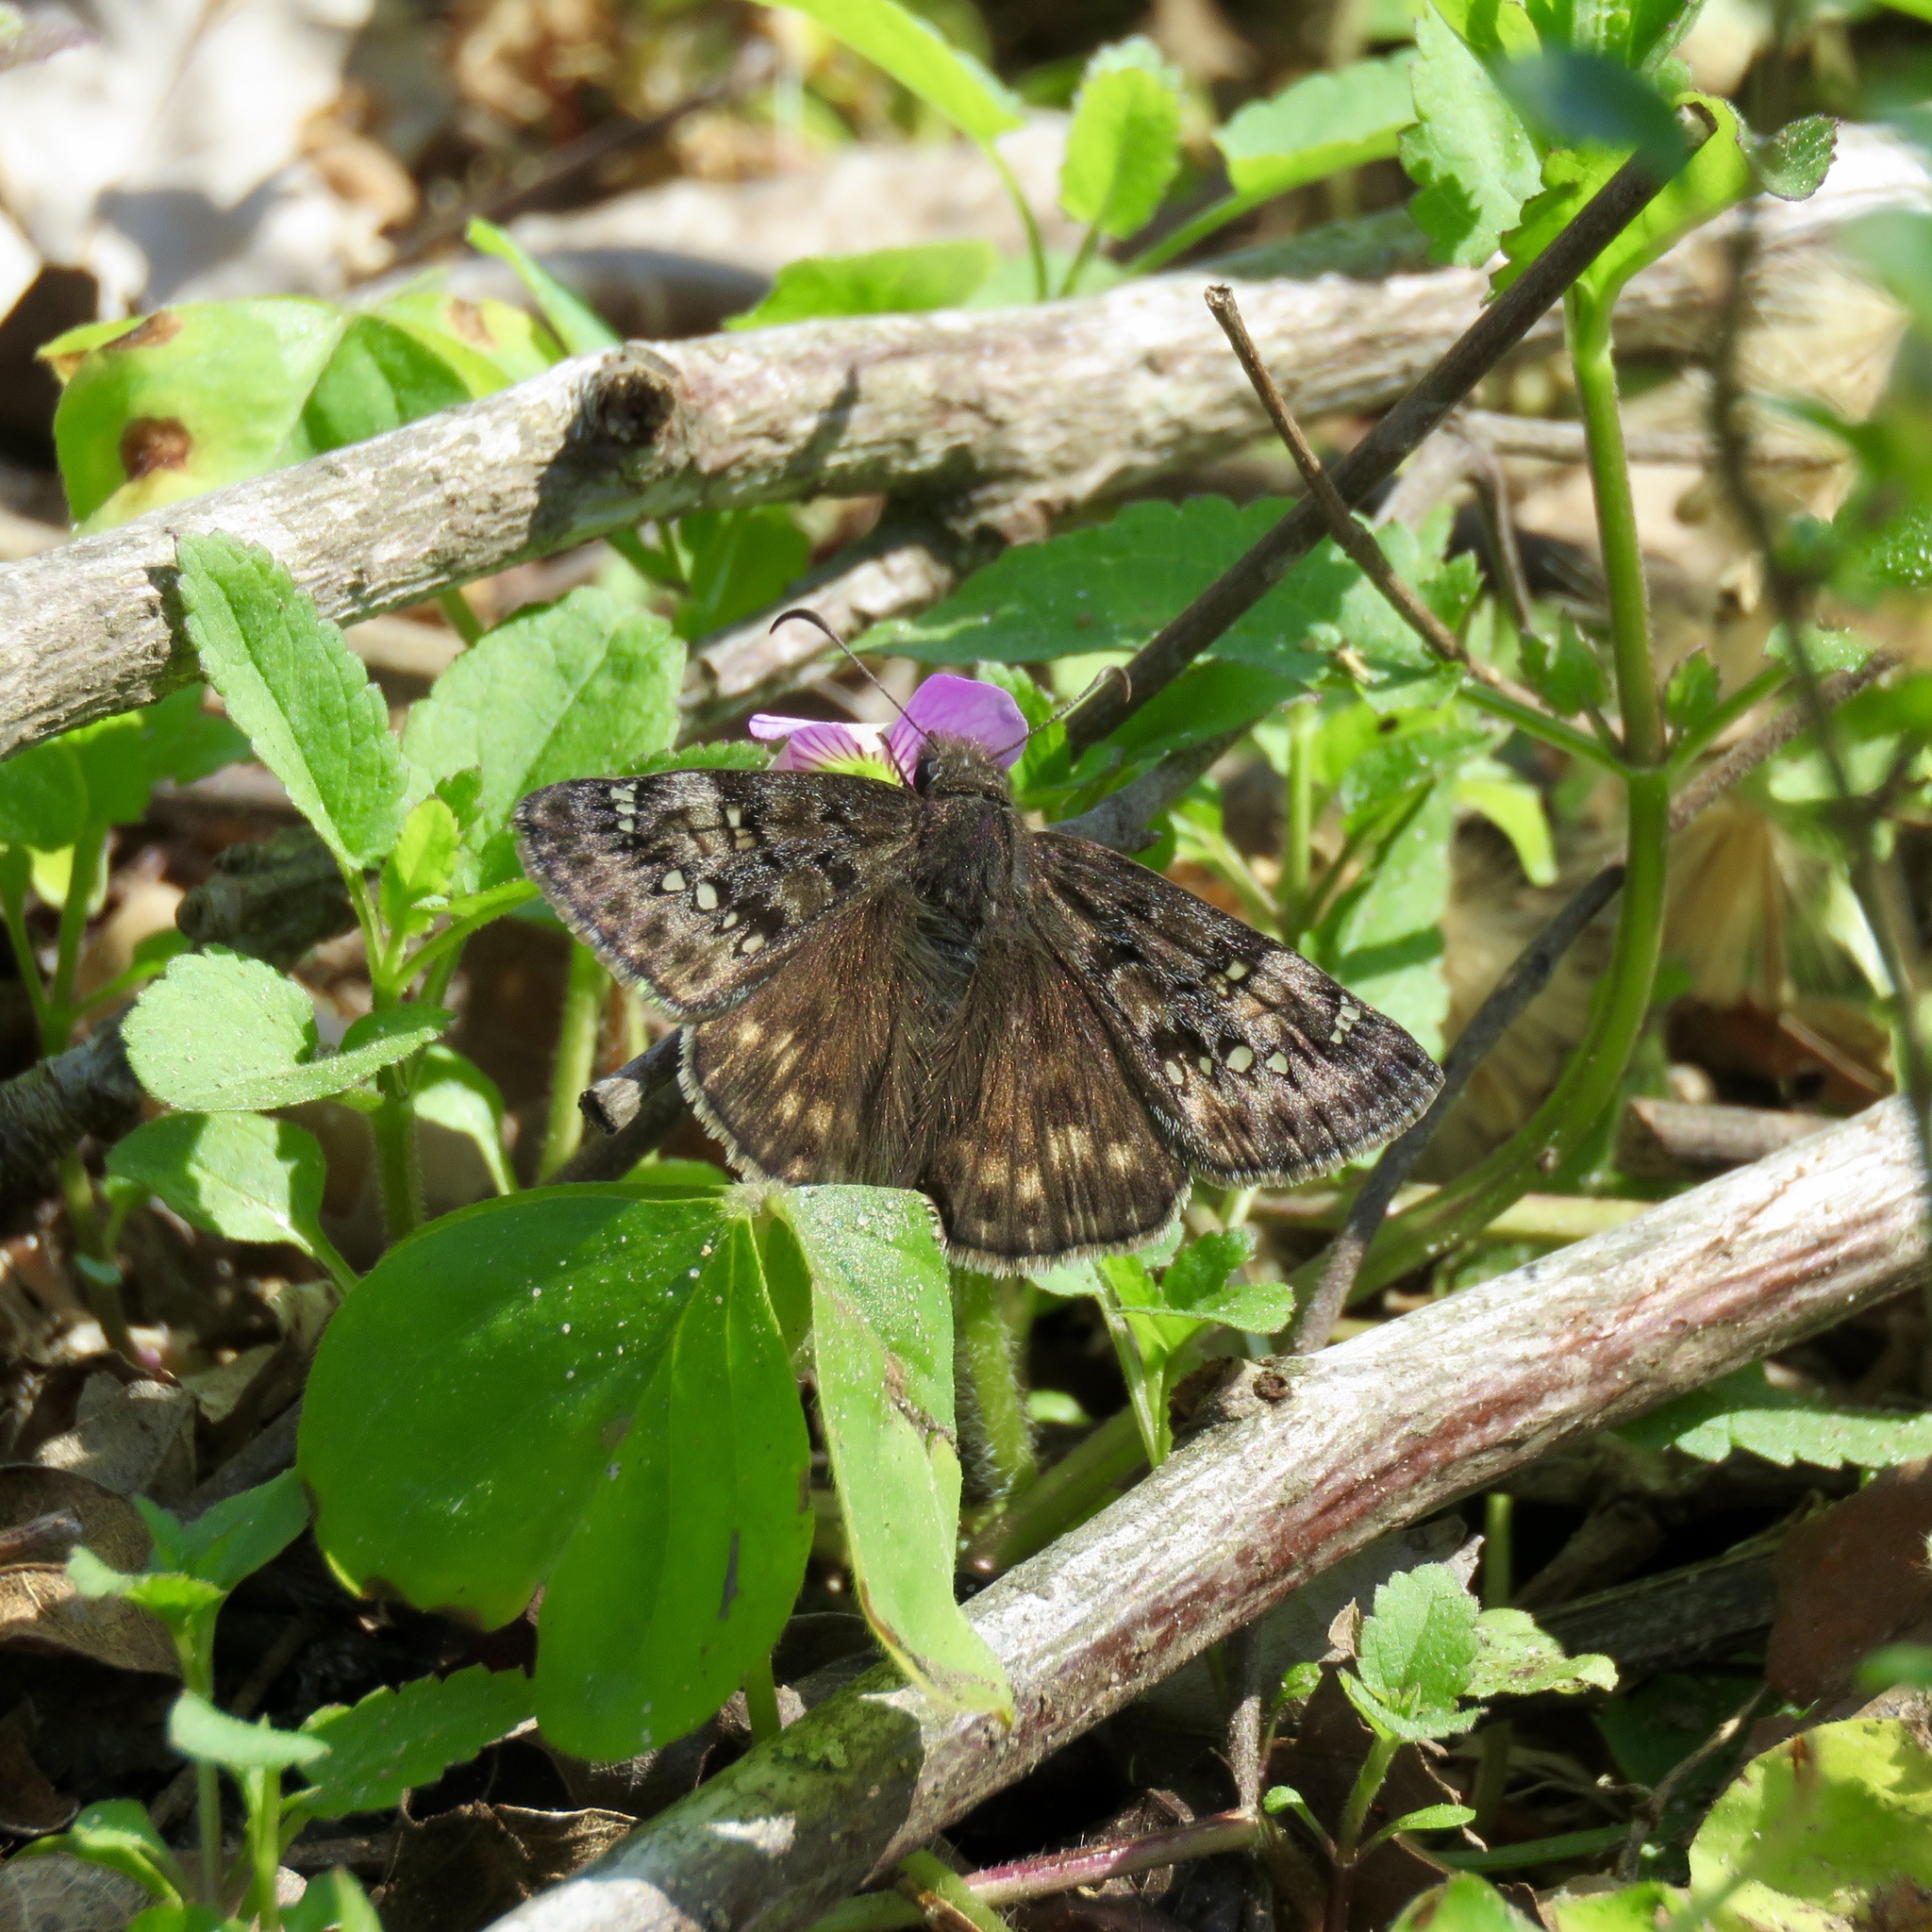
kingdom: Animalia
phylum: Arthropoda
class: Insecta
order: Lepidoptera
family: Hesperiidae
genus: Erynnis
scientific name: Erynnis juvenalis
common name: Juvenal's duskywing
